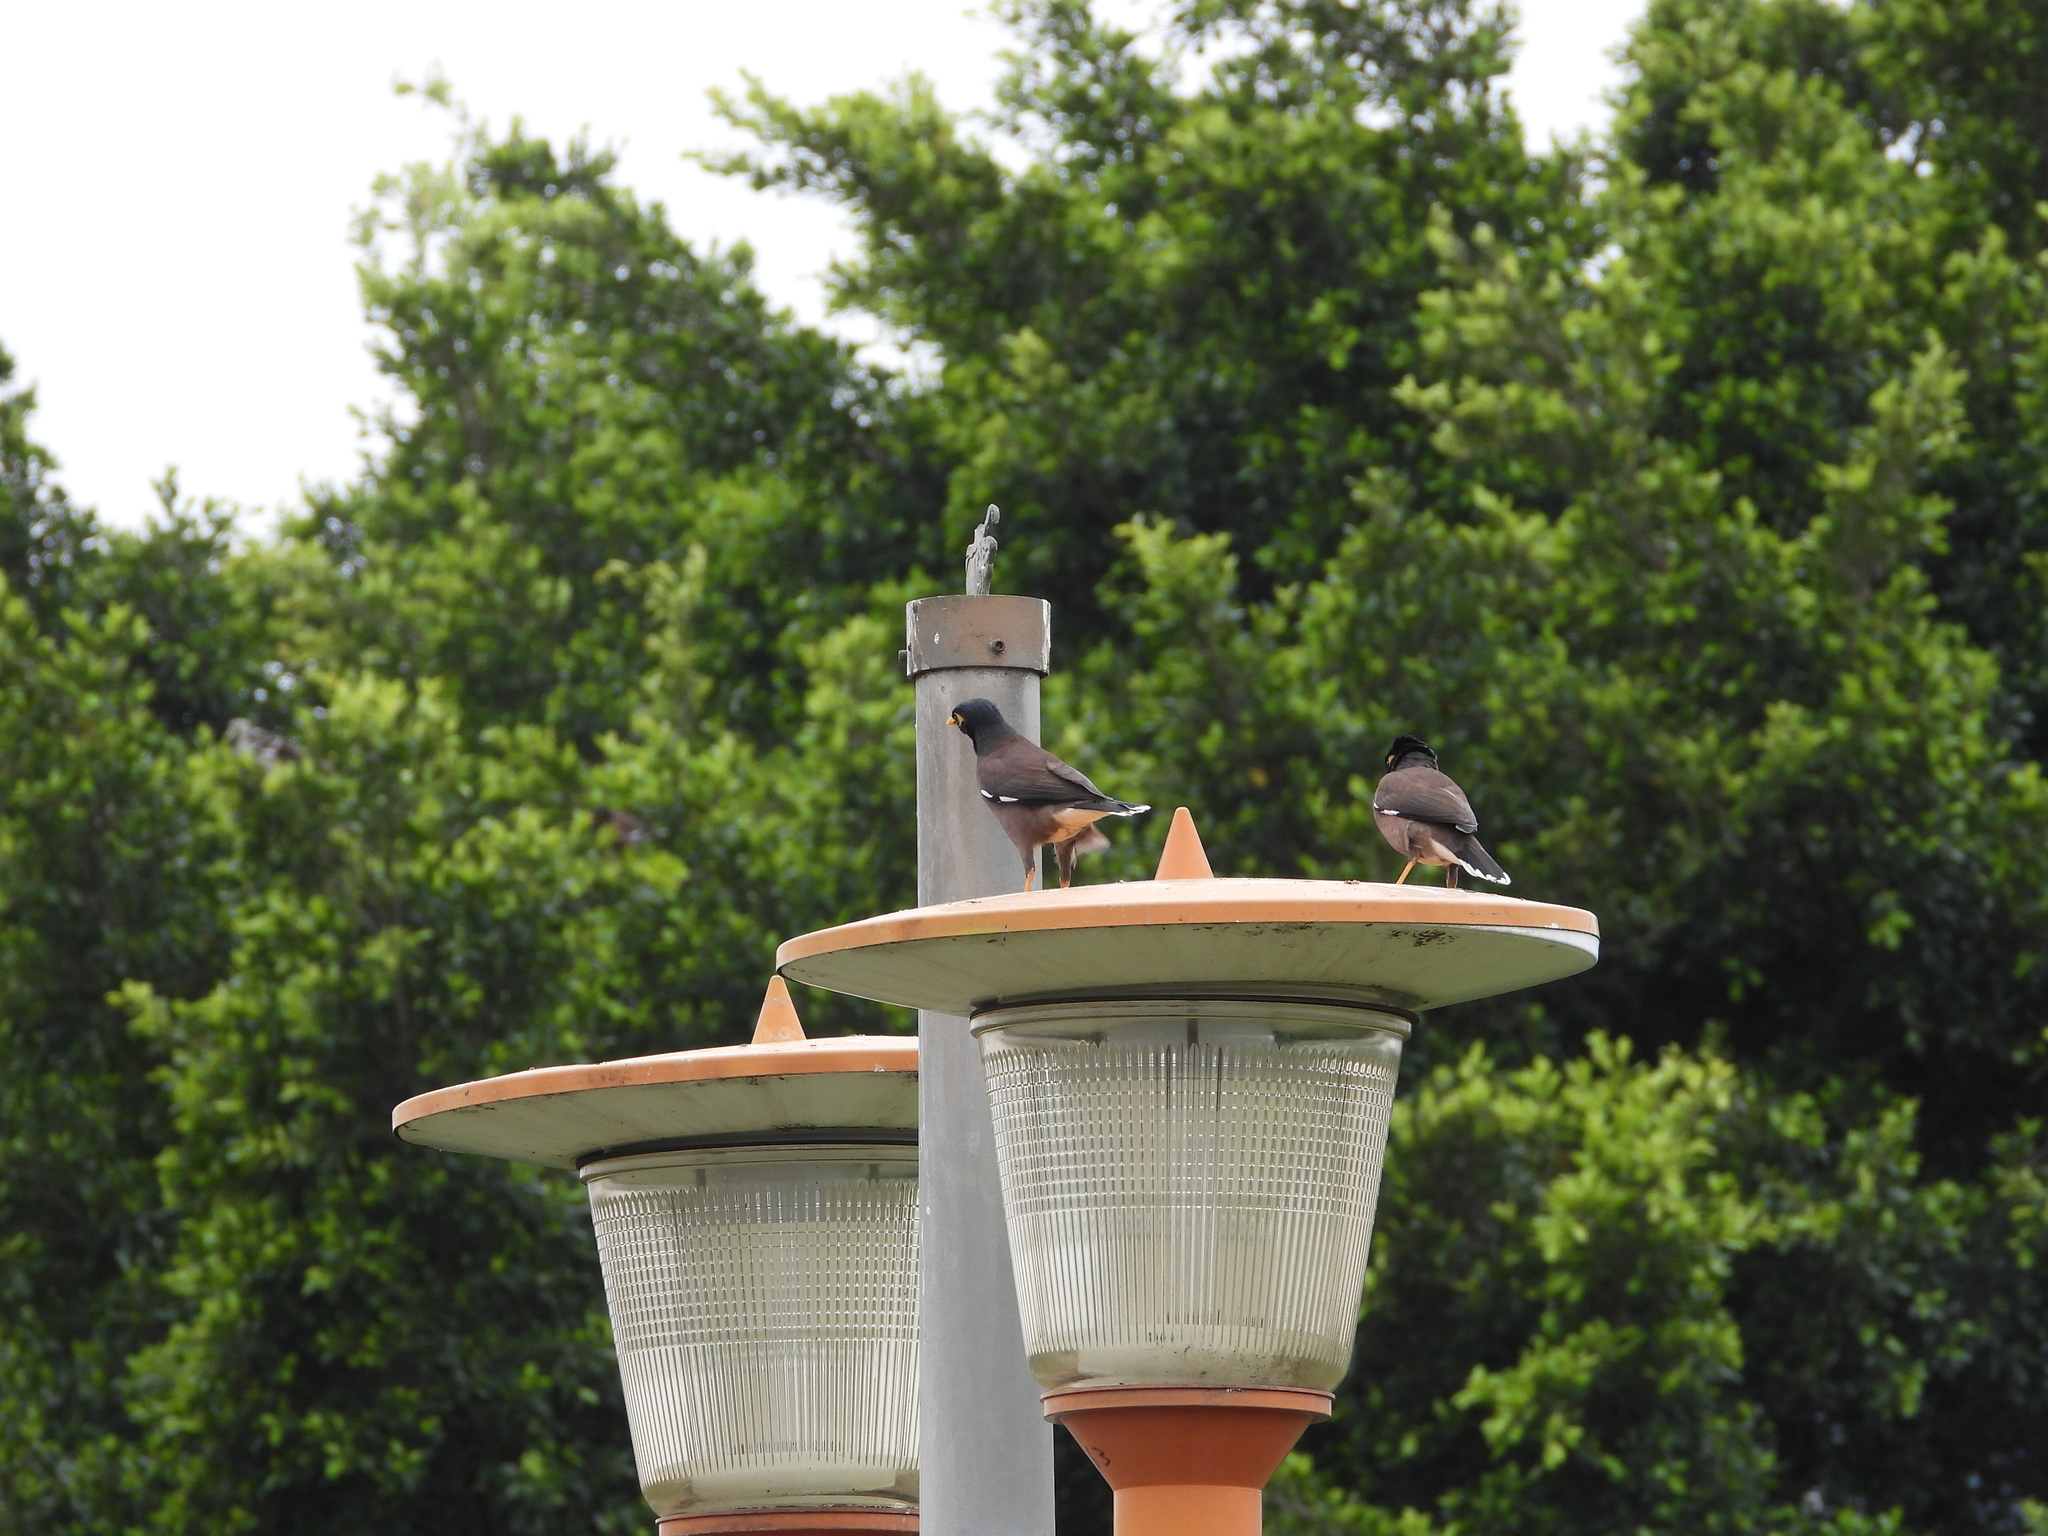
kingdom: Animalia
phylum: Chordata
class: Aves
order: Passeriformes
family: Sturnidae
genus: Acridotheres
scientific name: Acridotheres tristis
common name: Common myna
